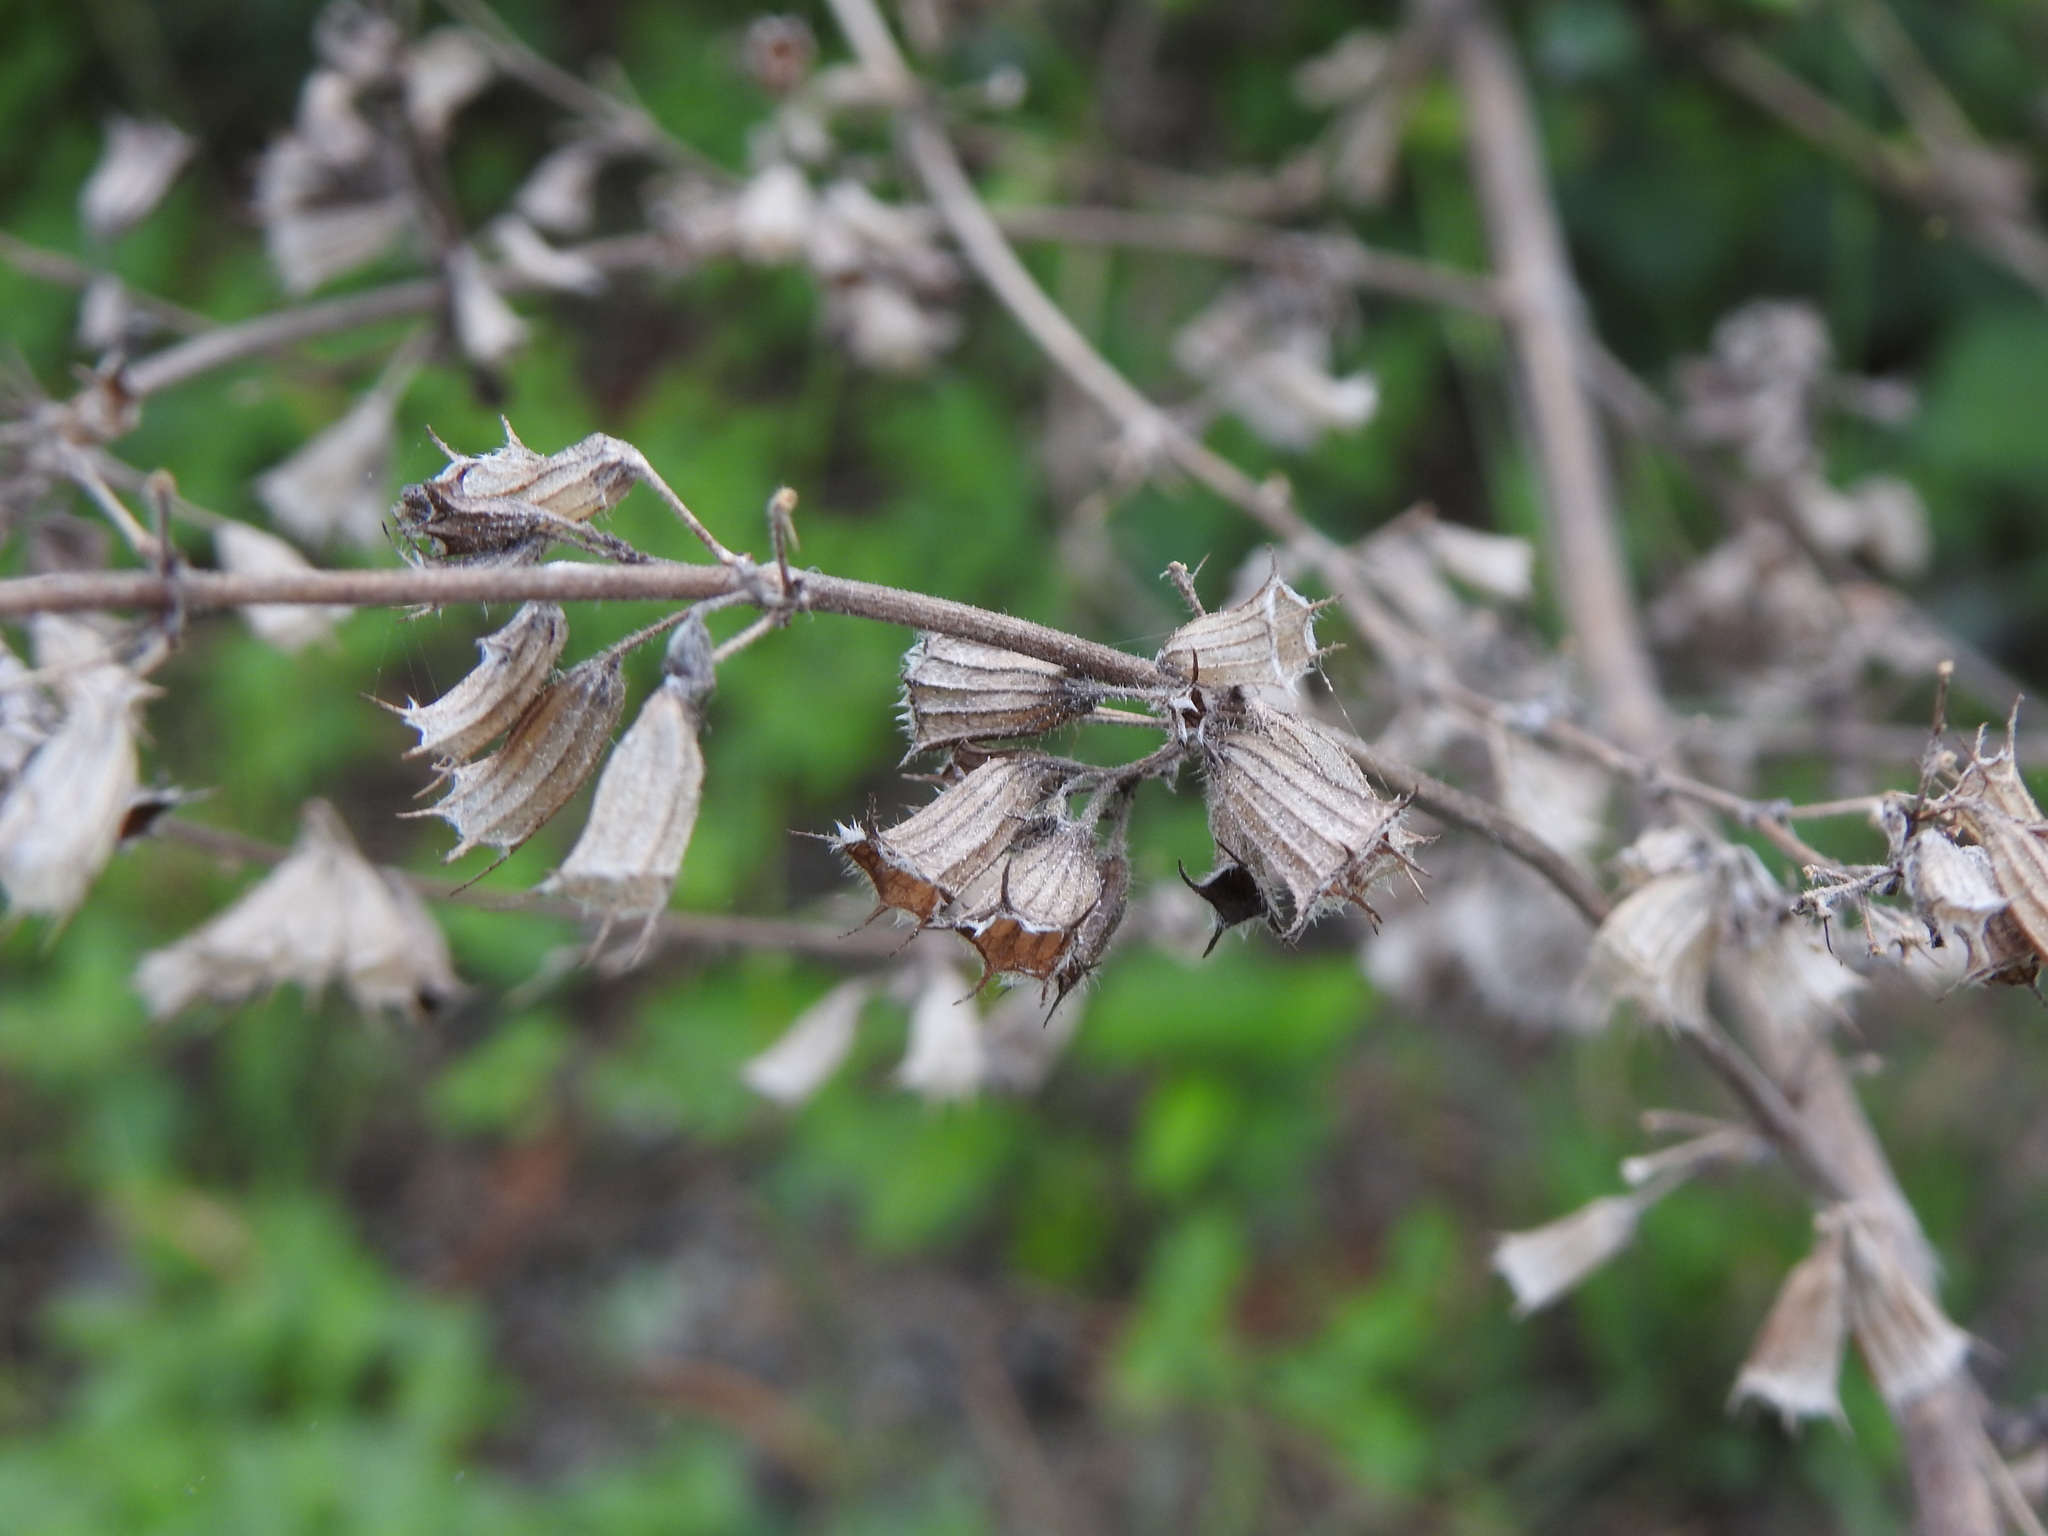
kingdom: Plantae
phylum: Tracheophyta
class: Magnoliopsida
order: Lamiales
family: Lamiaceae
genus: Mesosphaerum
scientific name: Mesosphaerum suaveolens
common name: Pignut
